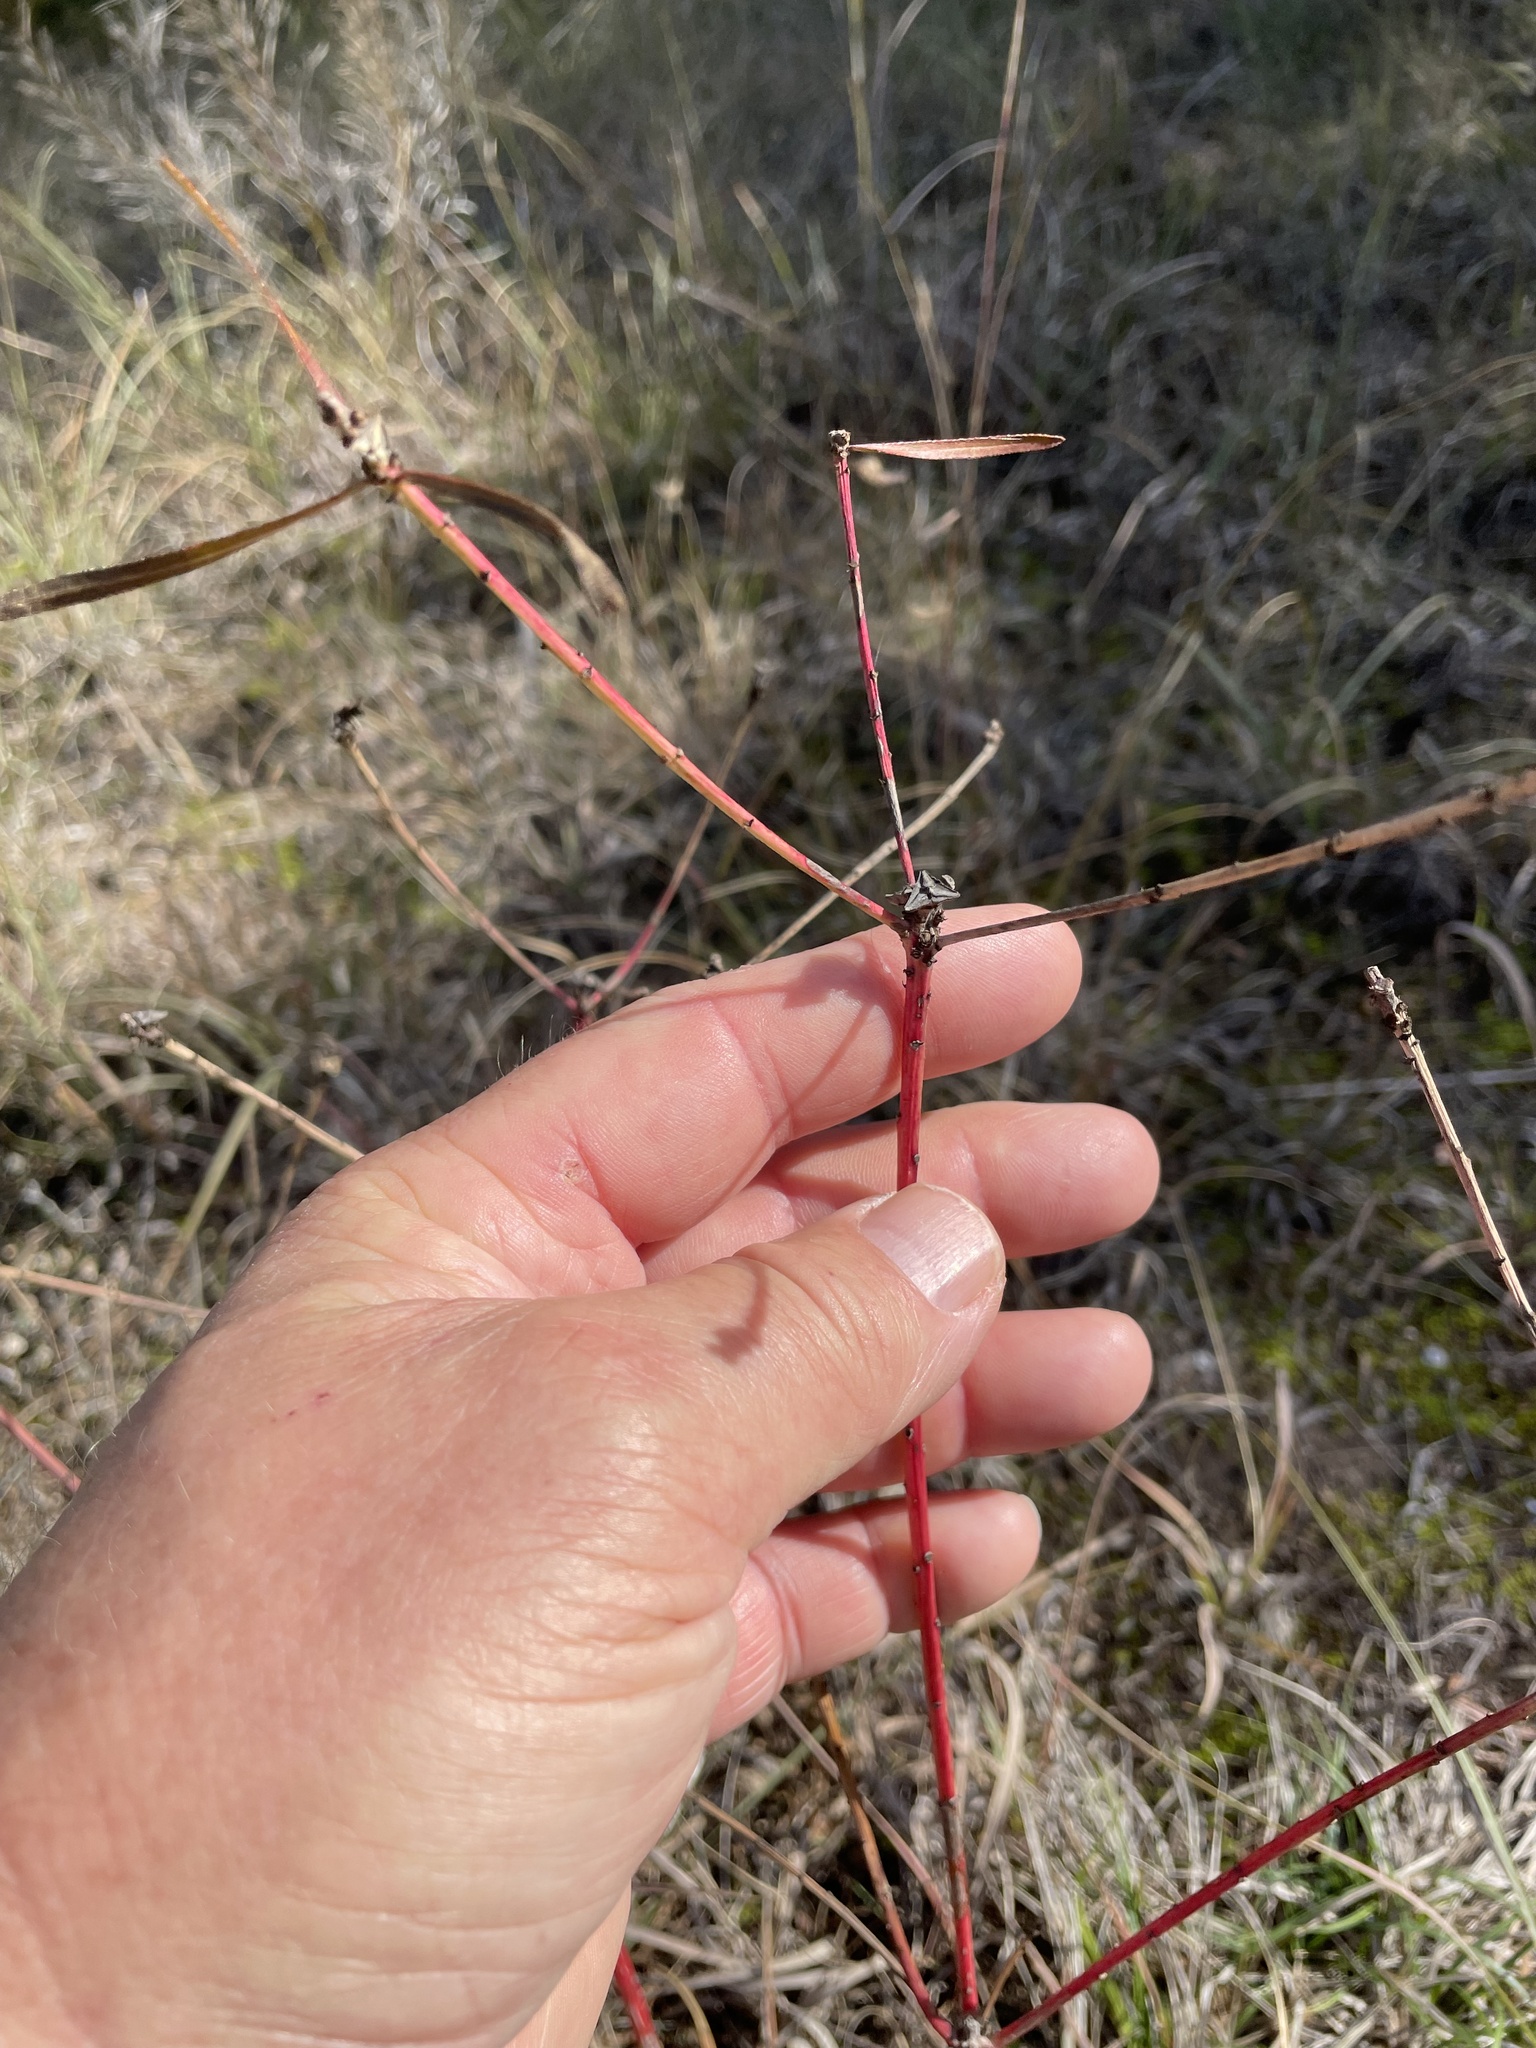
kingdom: Plantae
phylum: Tracheophyta
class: Magnoliopsida
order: Malpighiales
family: Euphorbiaceae
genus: Stillingia
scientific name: Stillingia texana
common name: Texas stillingia
